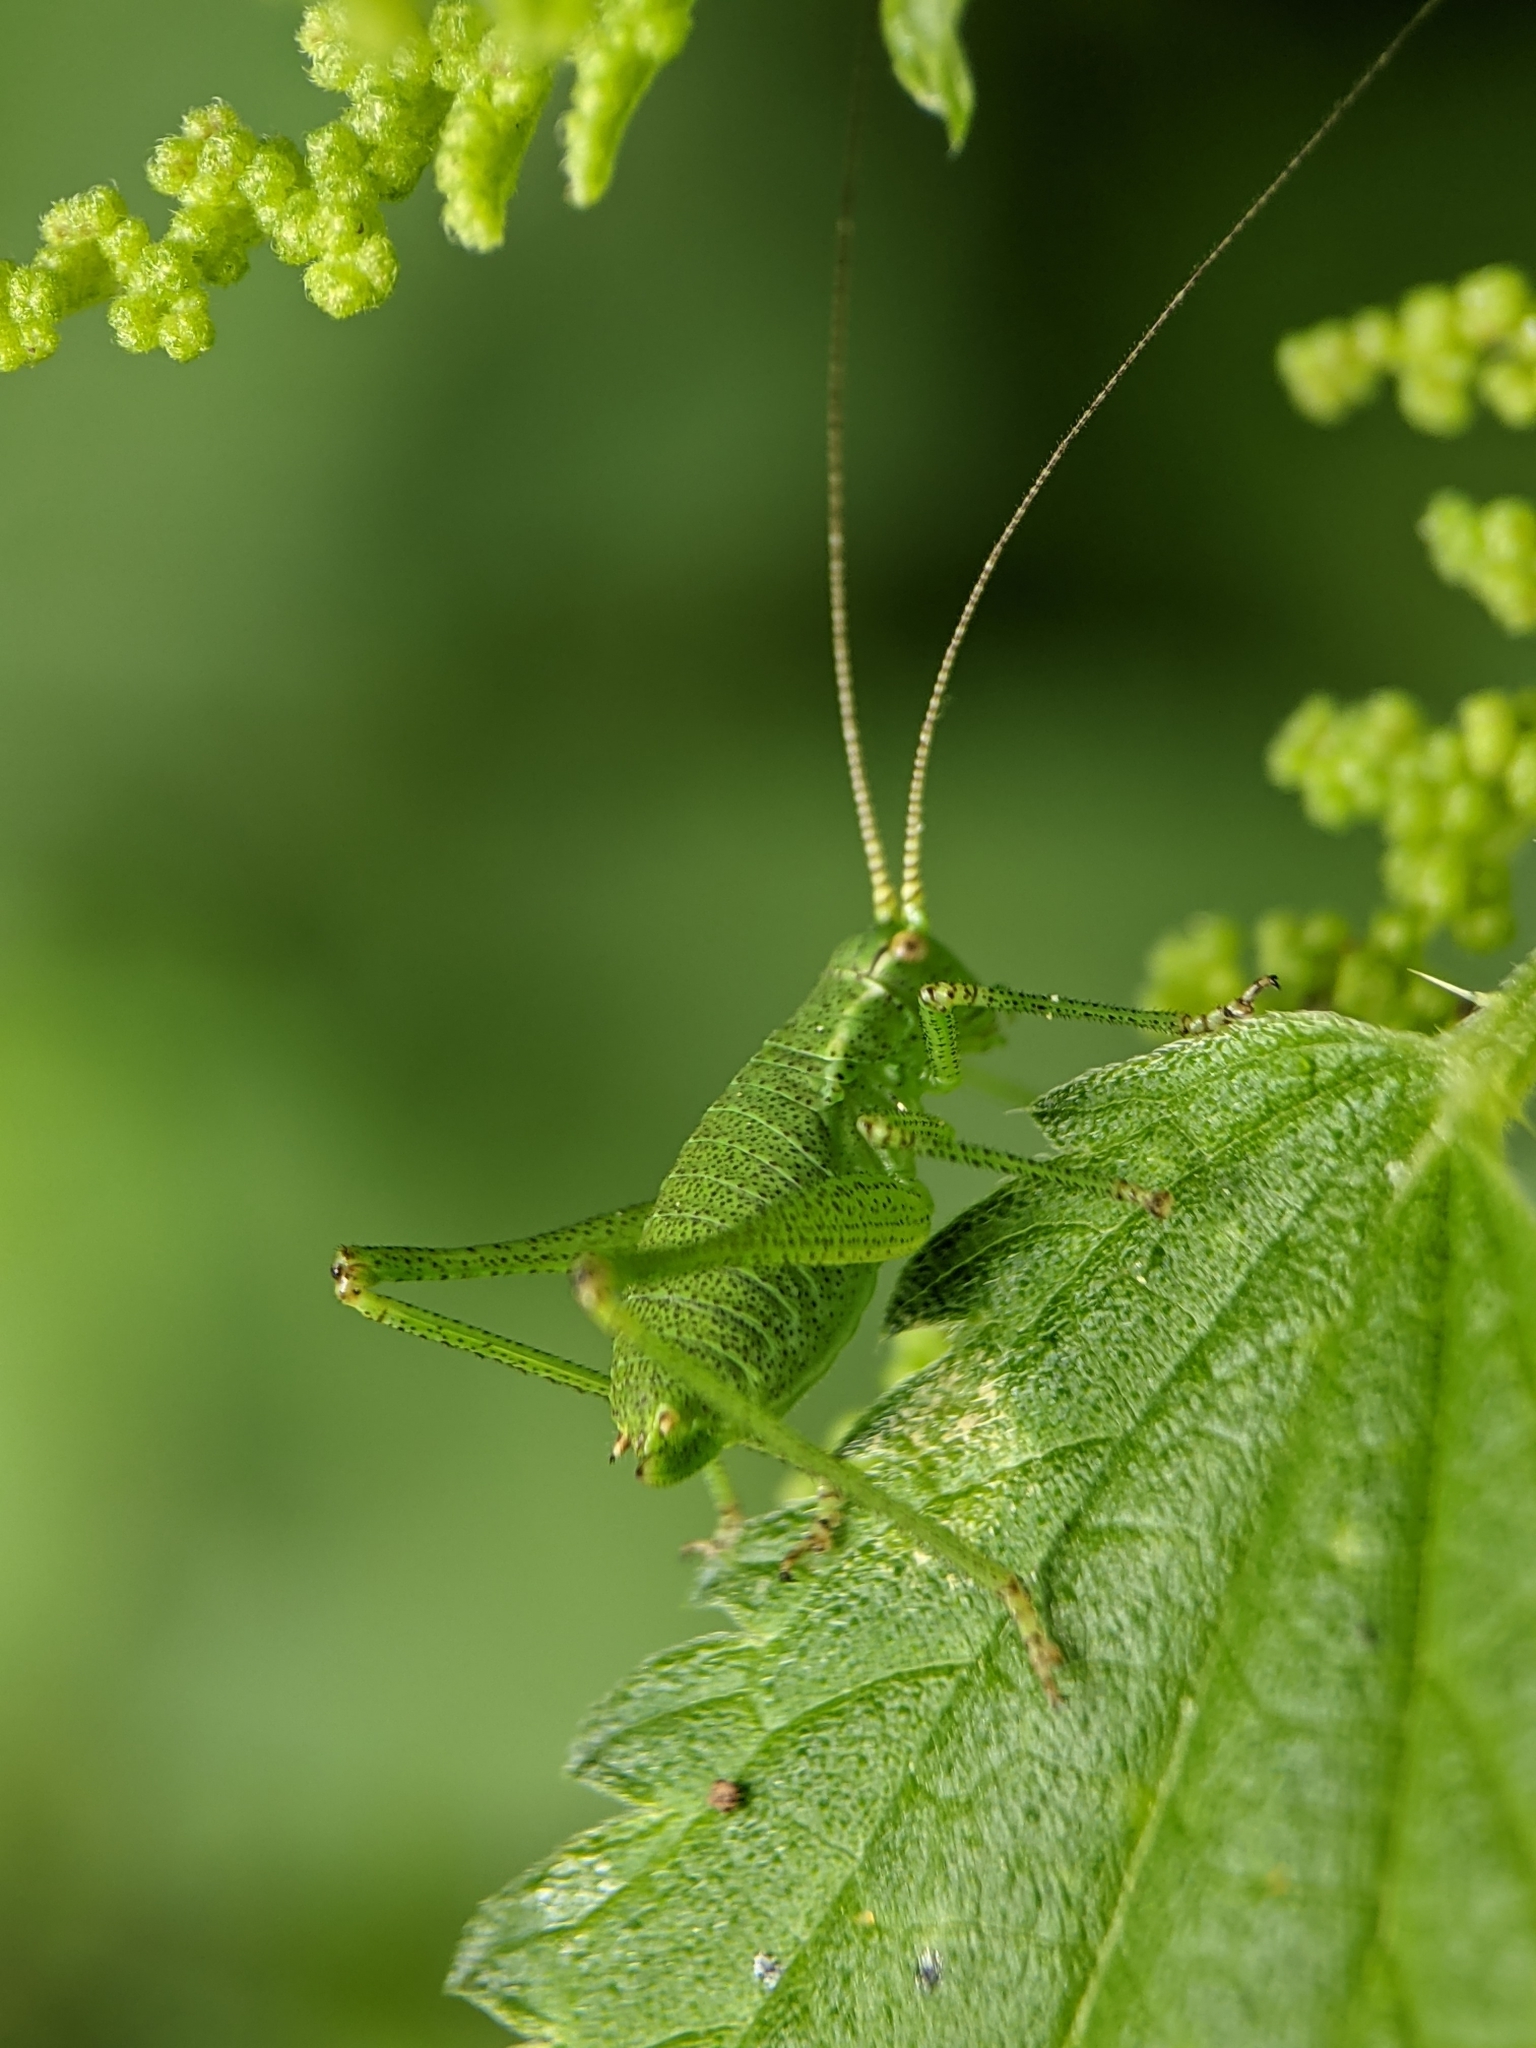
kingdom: Animalia
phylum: Arthropoda
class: Insecta
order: Orthoptera
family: Tettigoniidae
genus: Leptophyes
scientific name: Leptophyes punctatissima
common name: Speckled bush-cricket
